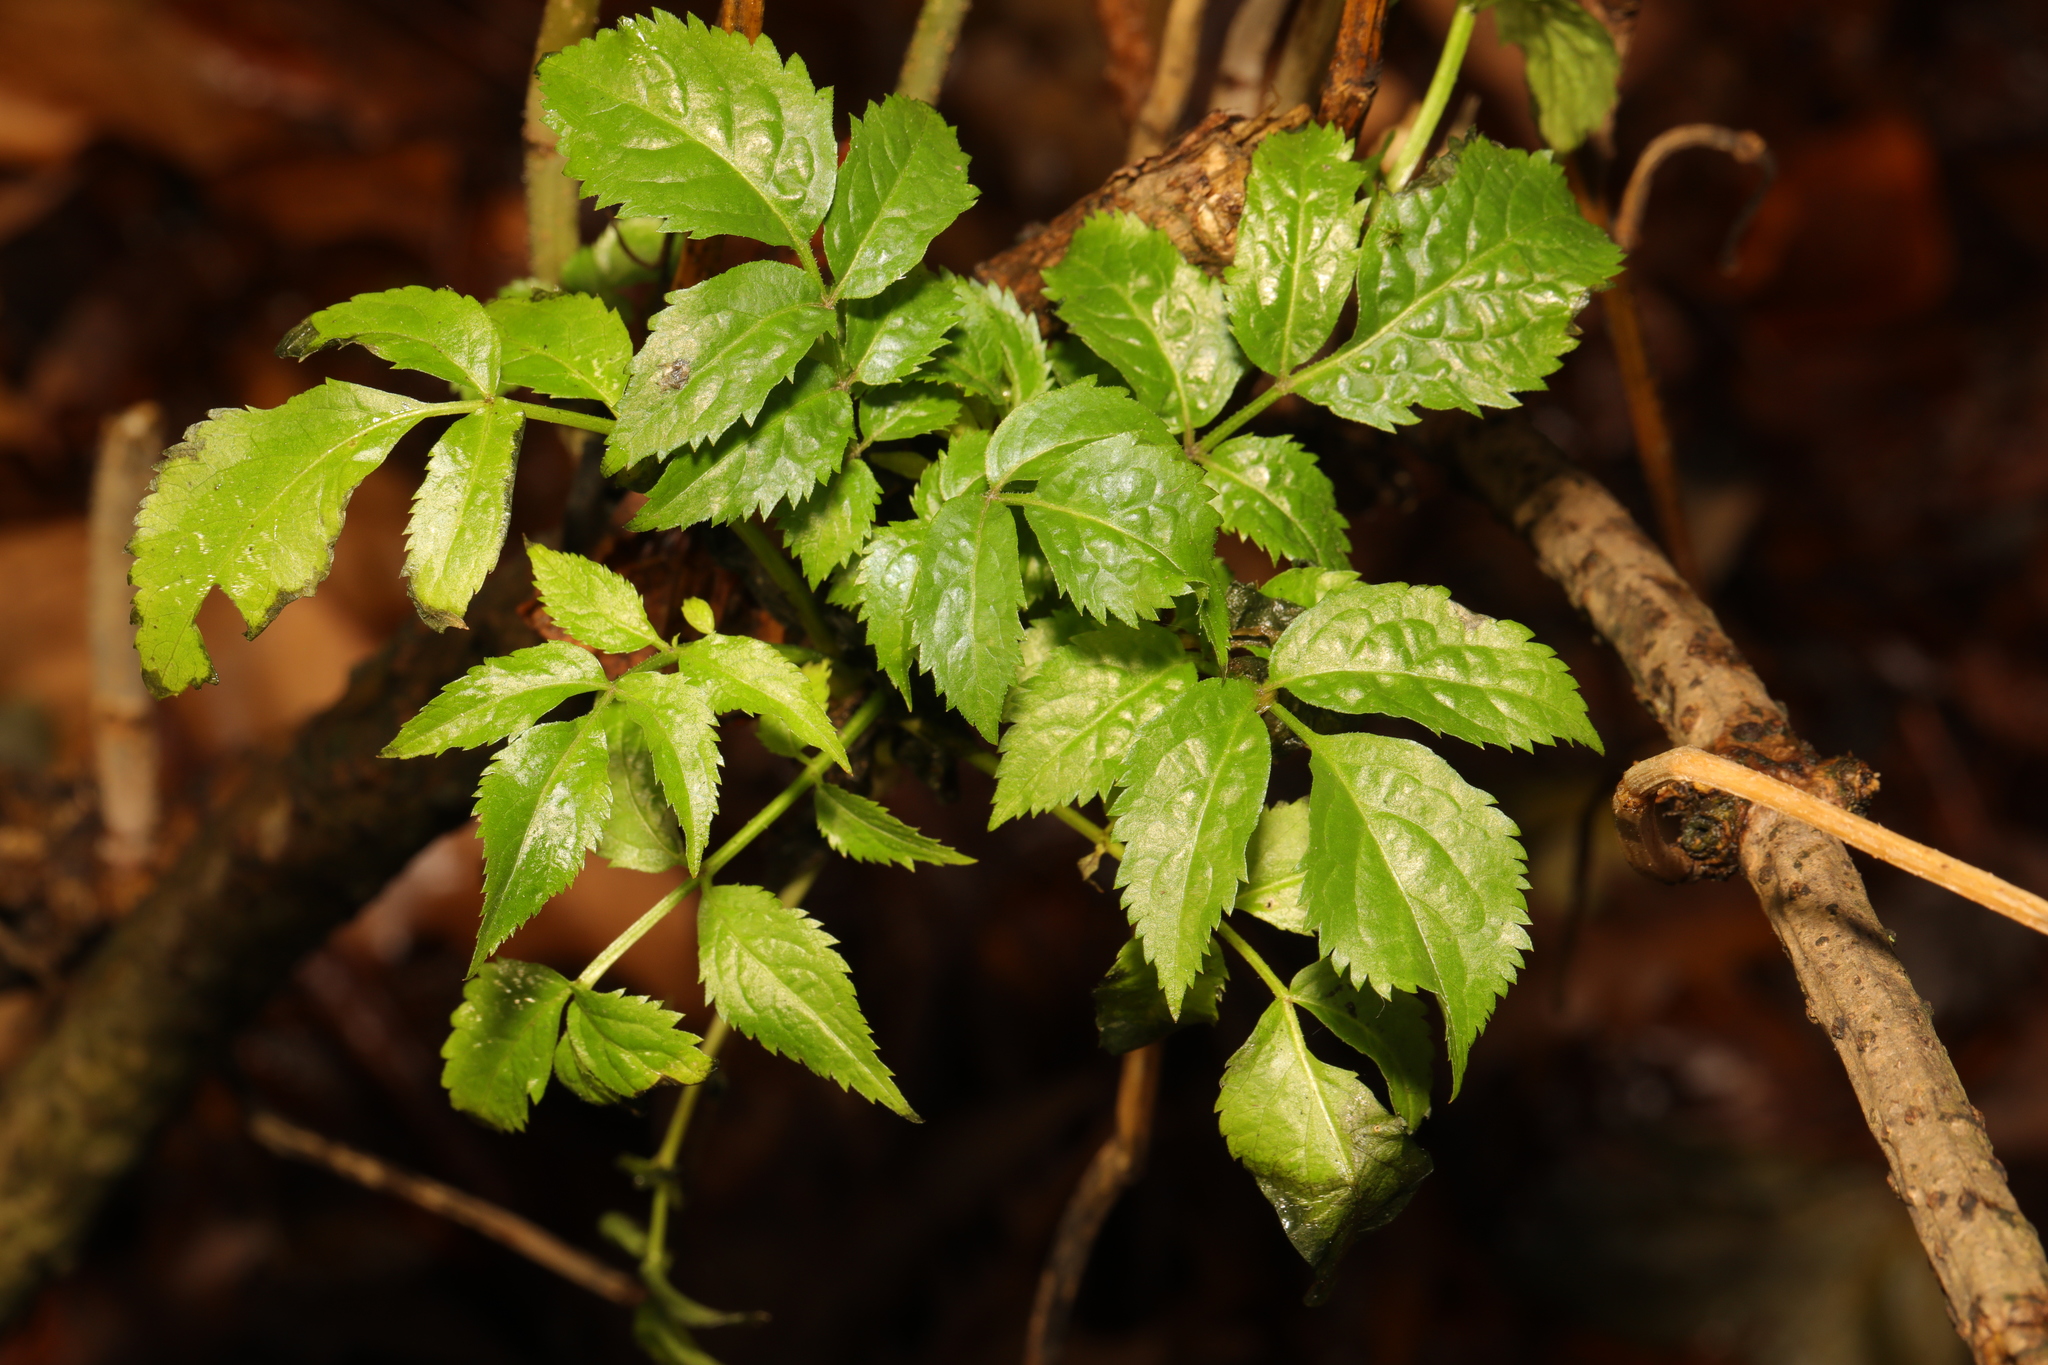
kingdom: Plantae
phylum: Tracheophyta
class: Magnoliopsida
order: Dipsacales
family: Viburnaceae
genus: Sambucus
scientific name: Sambucus nigra
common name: Elder
